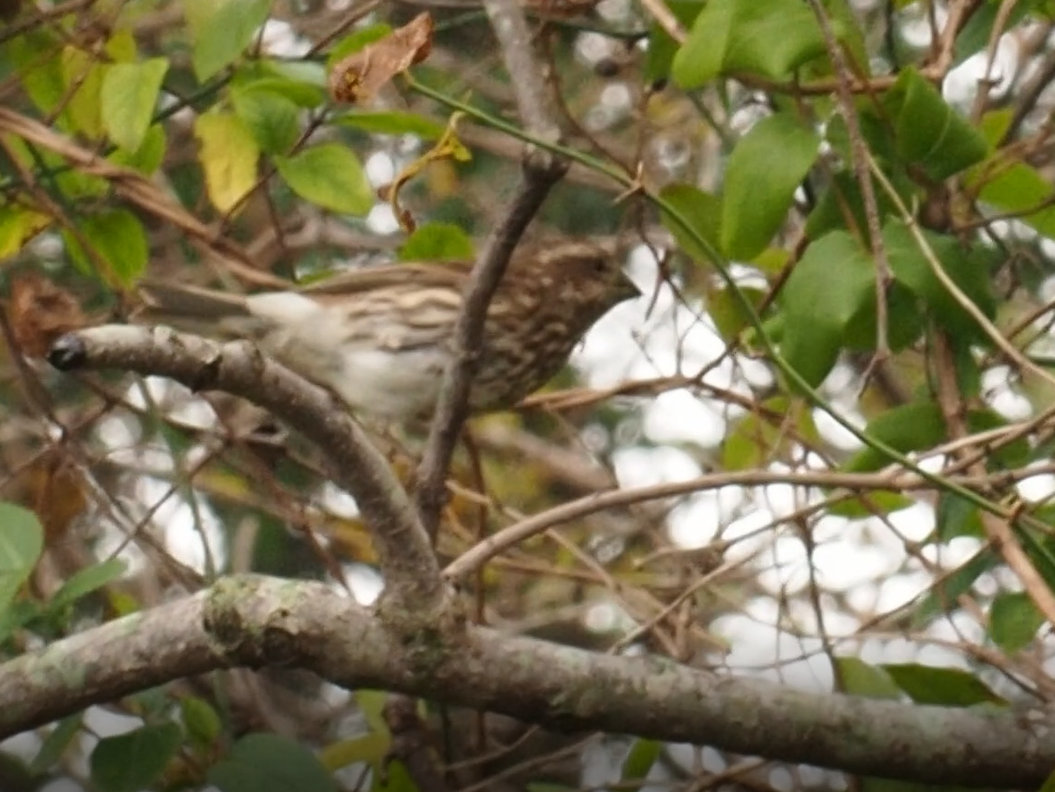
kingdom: Animalia
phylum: Chordata
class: Aves
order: Passeriformes
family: Fringillidae
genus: Haemorhous
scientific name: Haemorhous purpureus
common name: Purple finch
